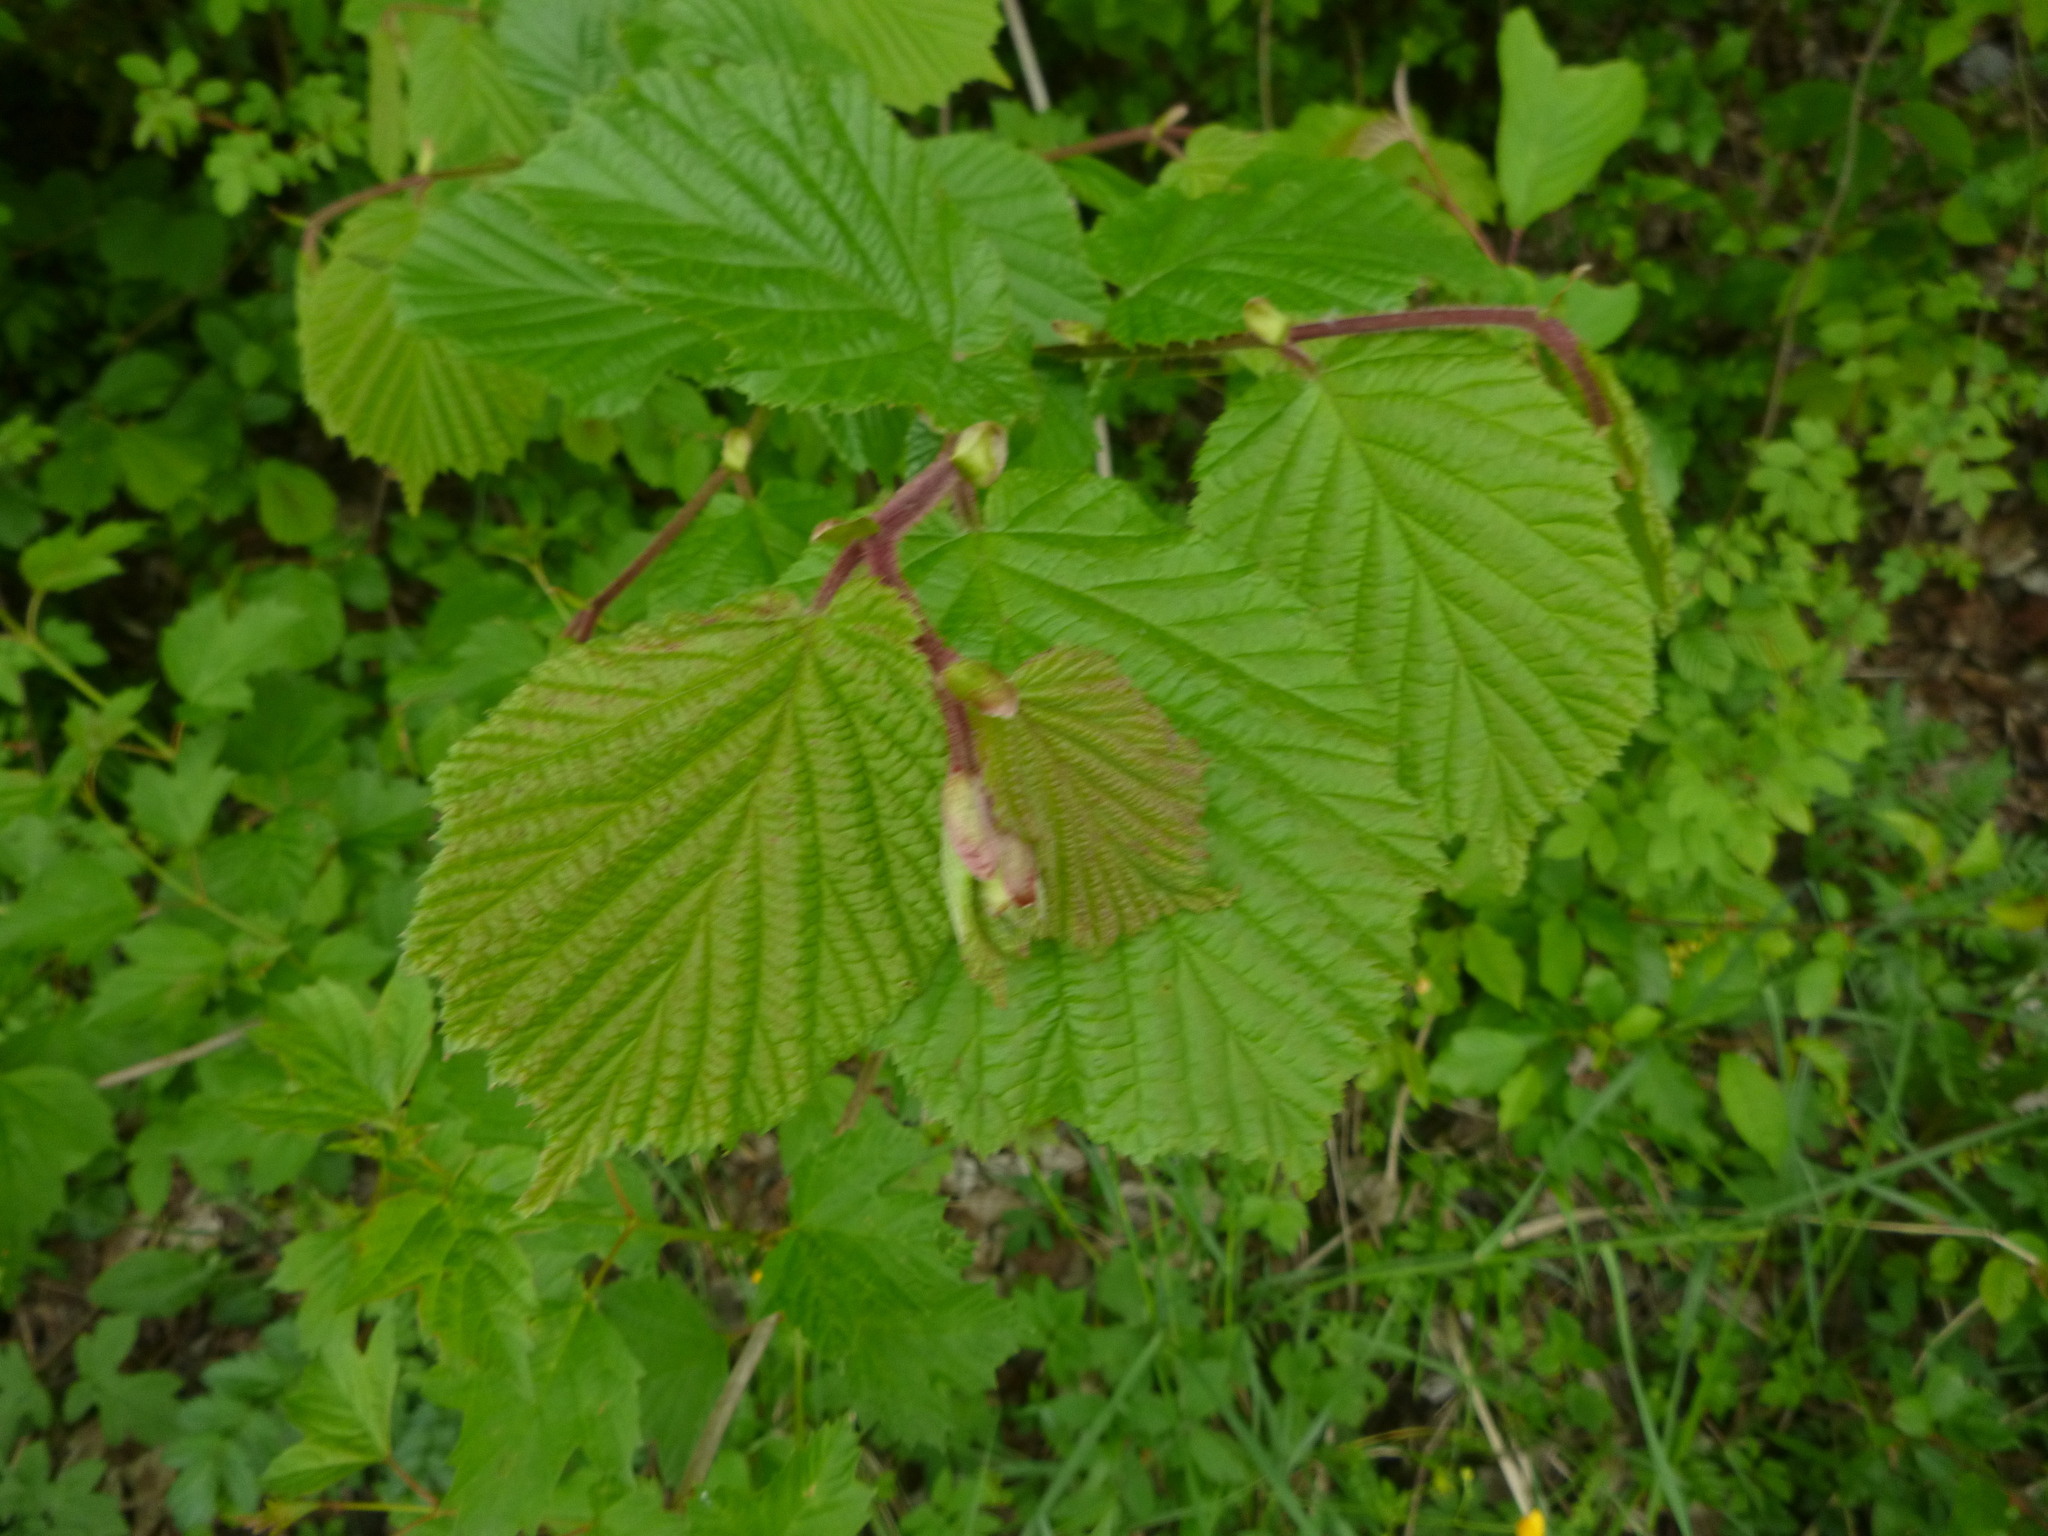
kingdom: Plantae
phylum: Tracheophyta
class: Magnoliopsida
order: Fagales
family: Betulaceae
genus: Corylus
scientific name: Corylus avellana
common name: European hazel
